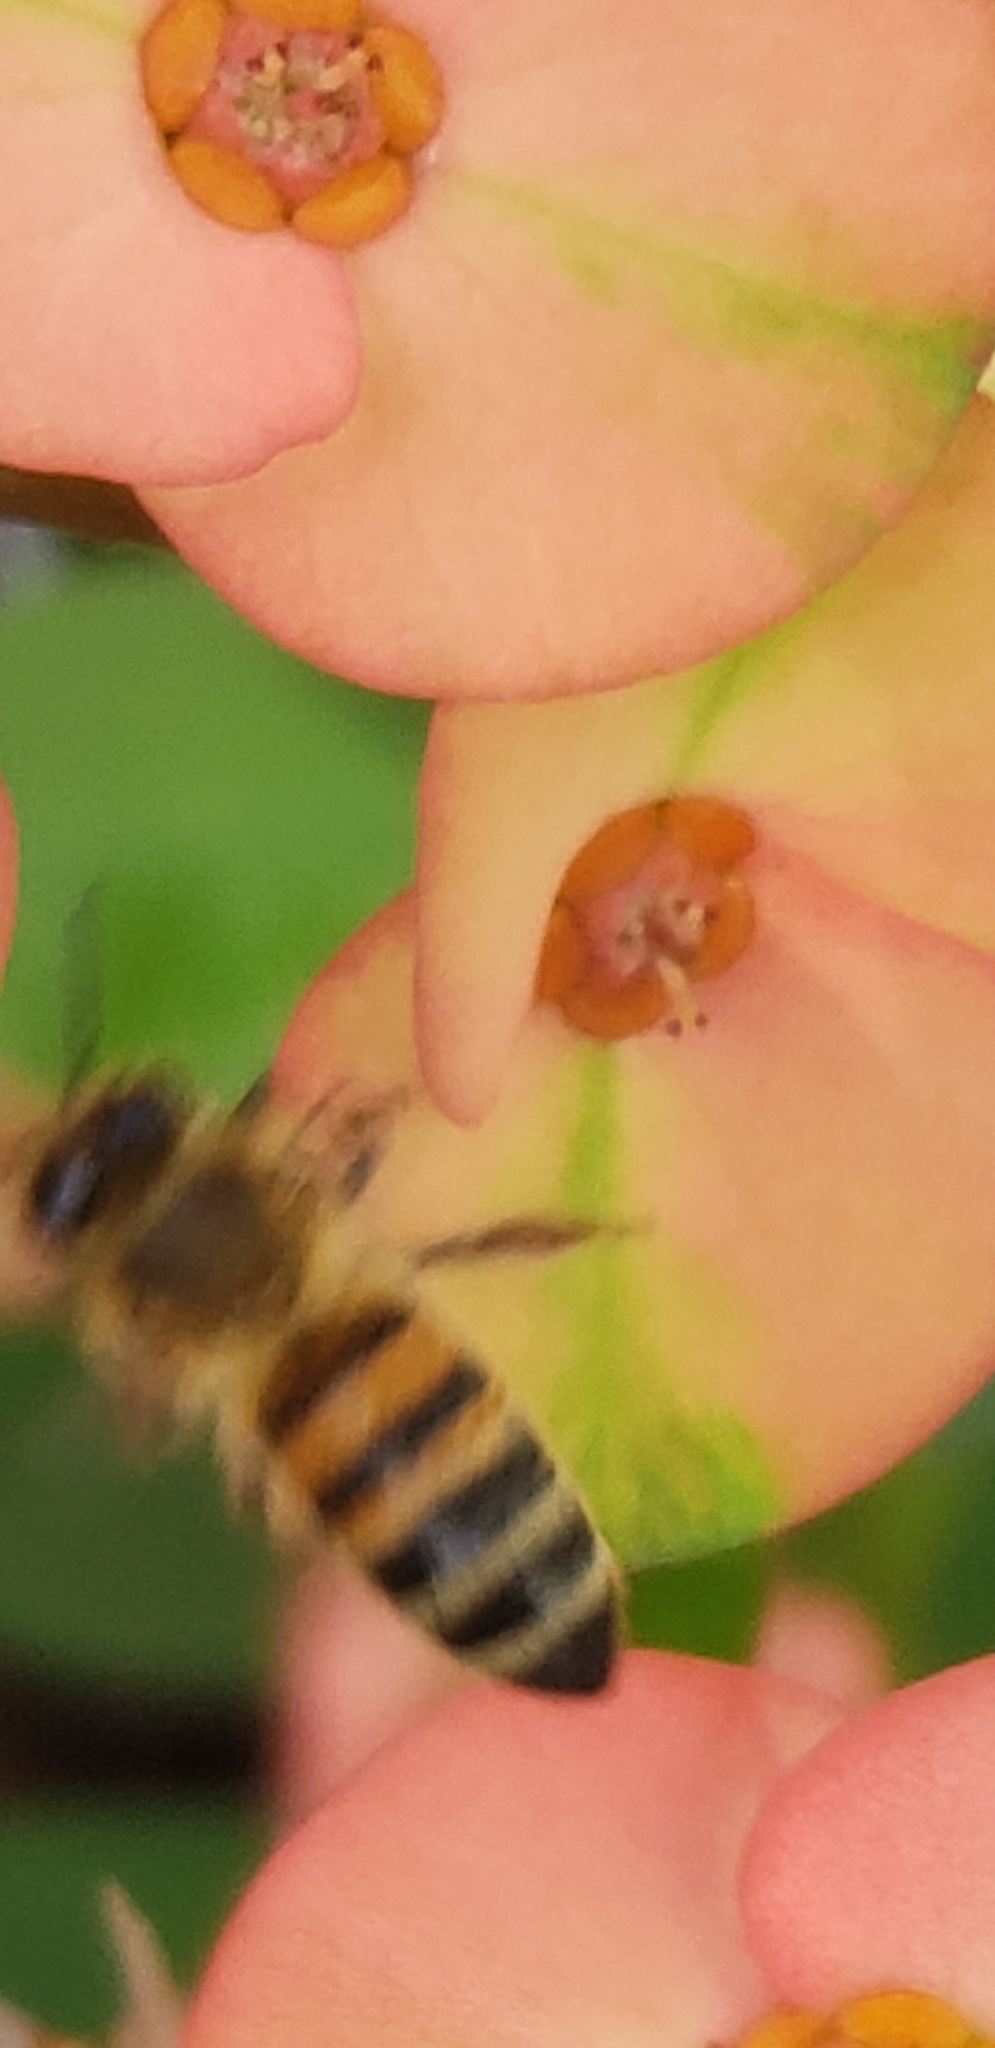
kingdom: Animalia
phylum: Arthropoda
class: Insecta
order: Hymenoptera
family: Apidae
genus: Apis
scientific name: Apis mellifera
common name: Honey bee
